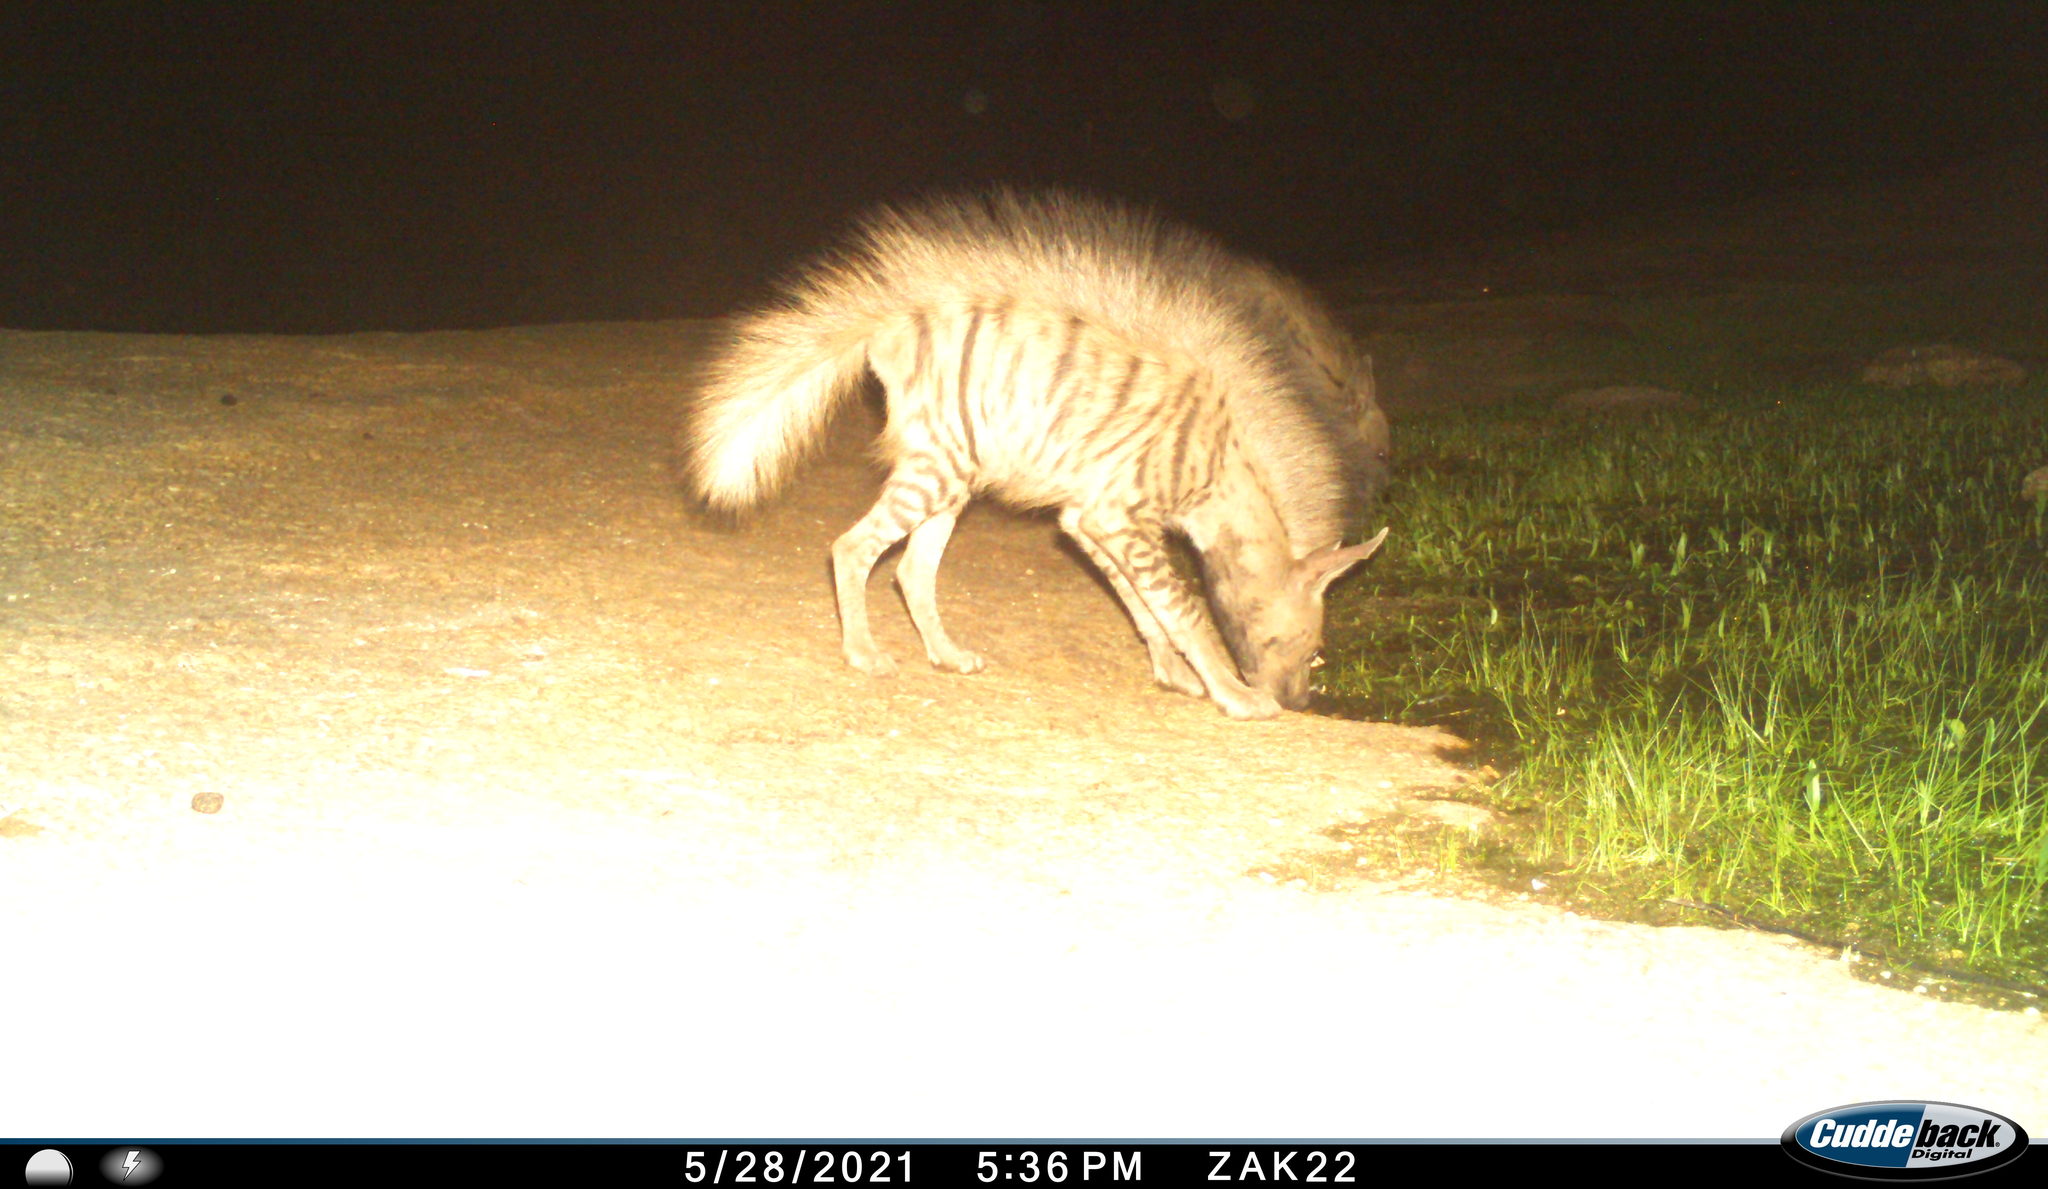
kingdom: Animalia
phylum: Chordata
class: Mammalia
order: Carnivora
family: Hyaenidae
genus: Hyaena
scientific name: Hyaena hyaena
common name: Striped hyaena
